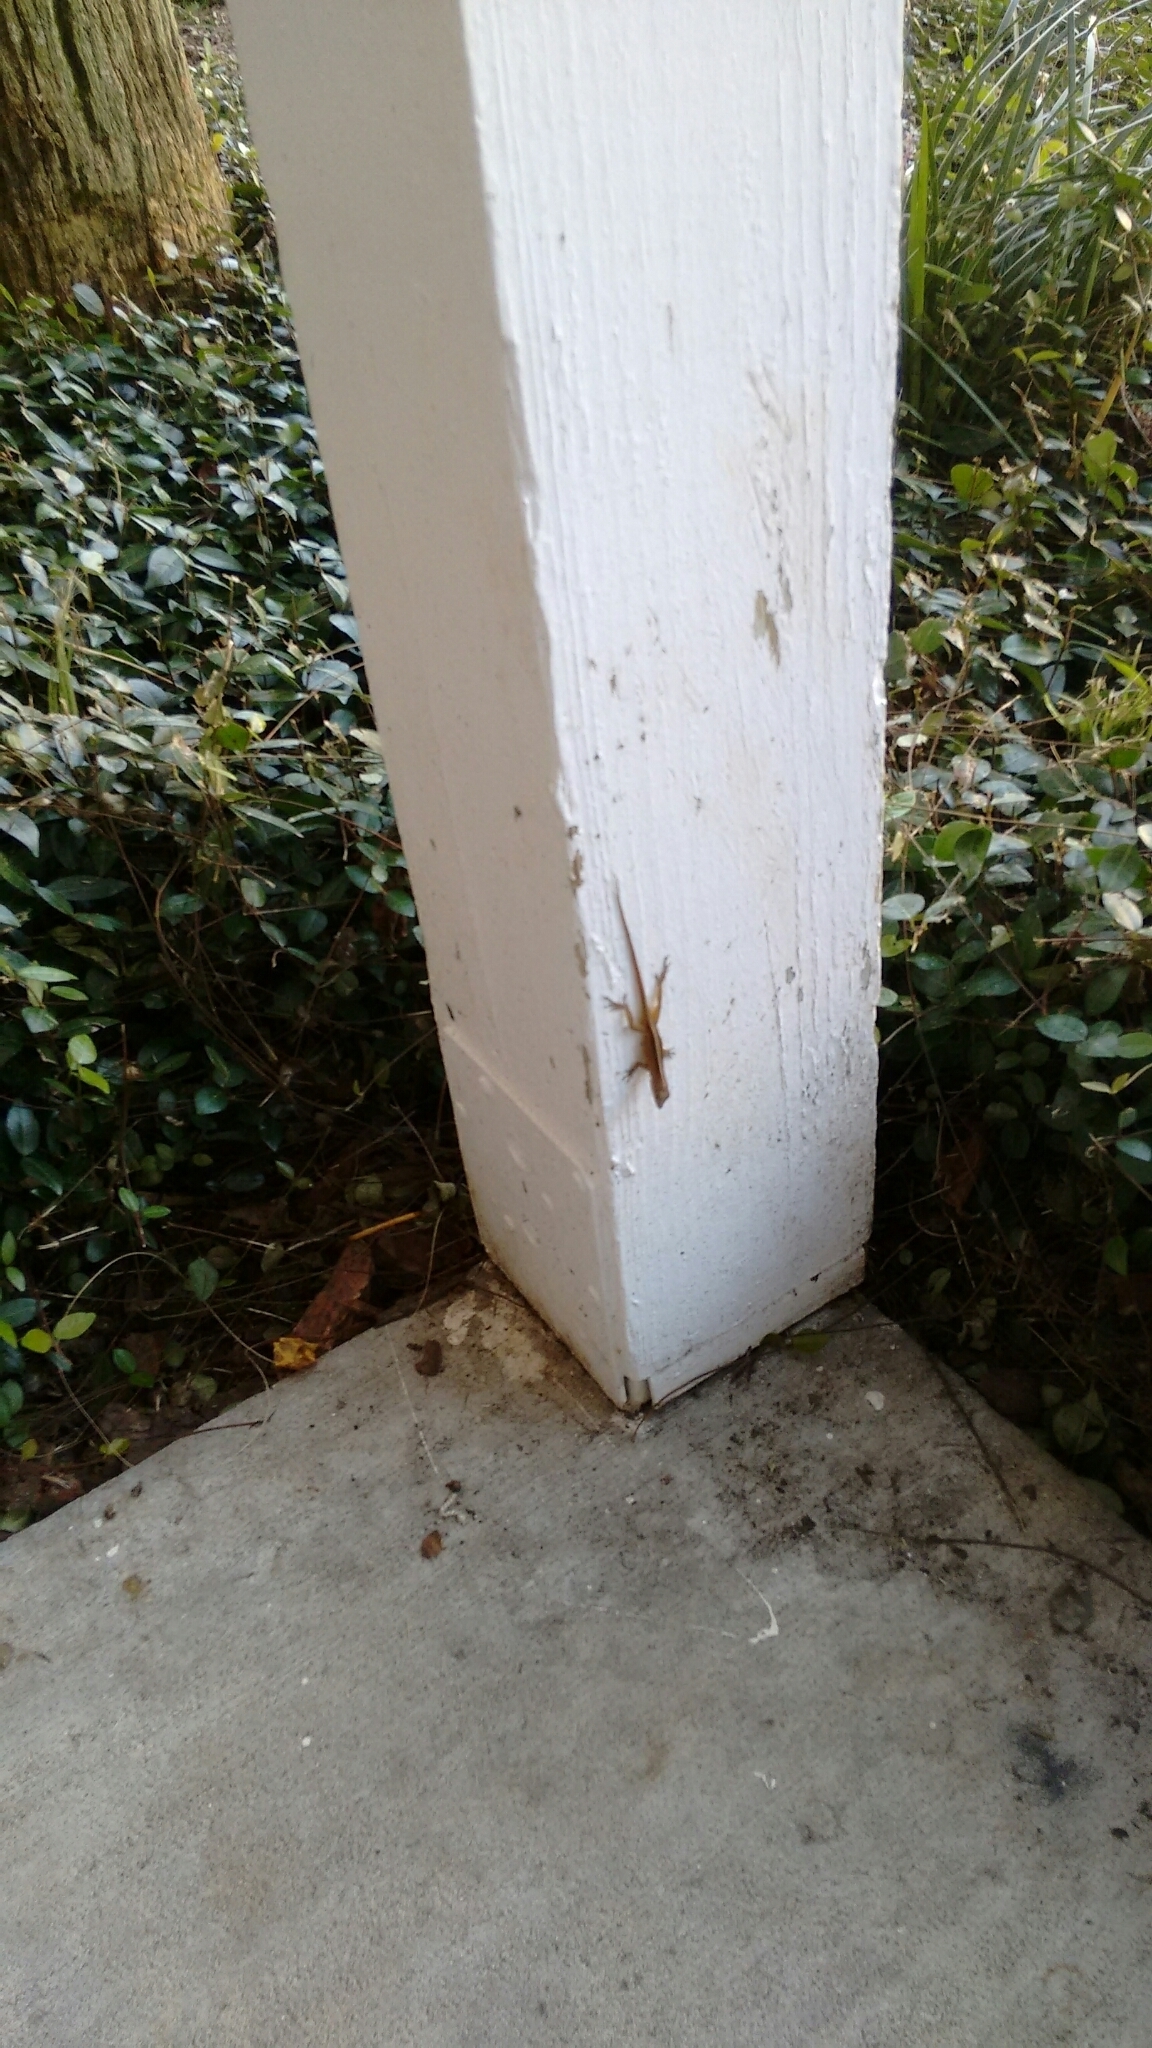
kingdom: Animalia
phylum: Chordata
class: Squamata
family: Dactyloidae
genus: Anolis
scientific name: Anolis sagrei
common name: Brown anole
